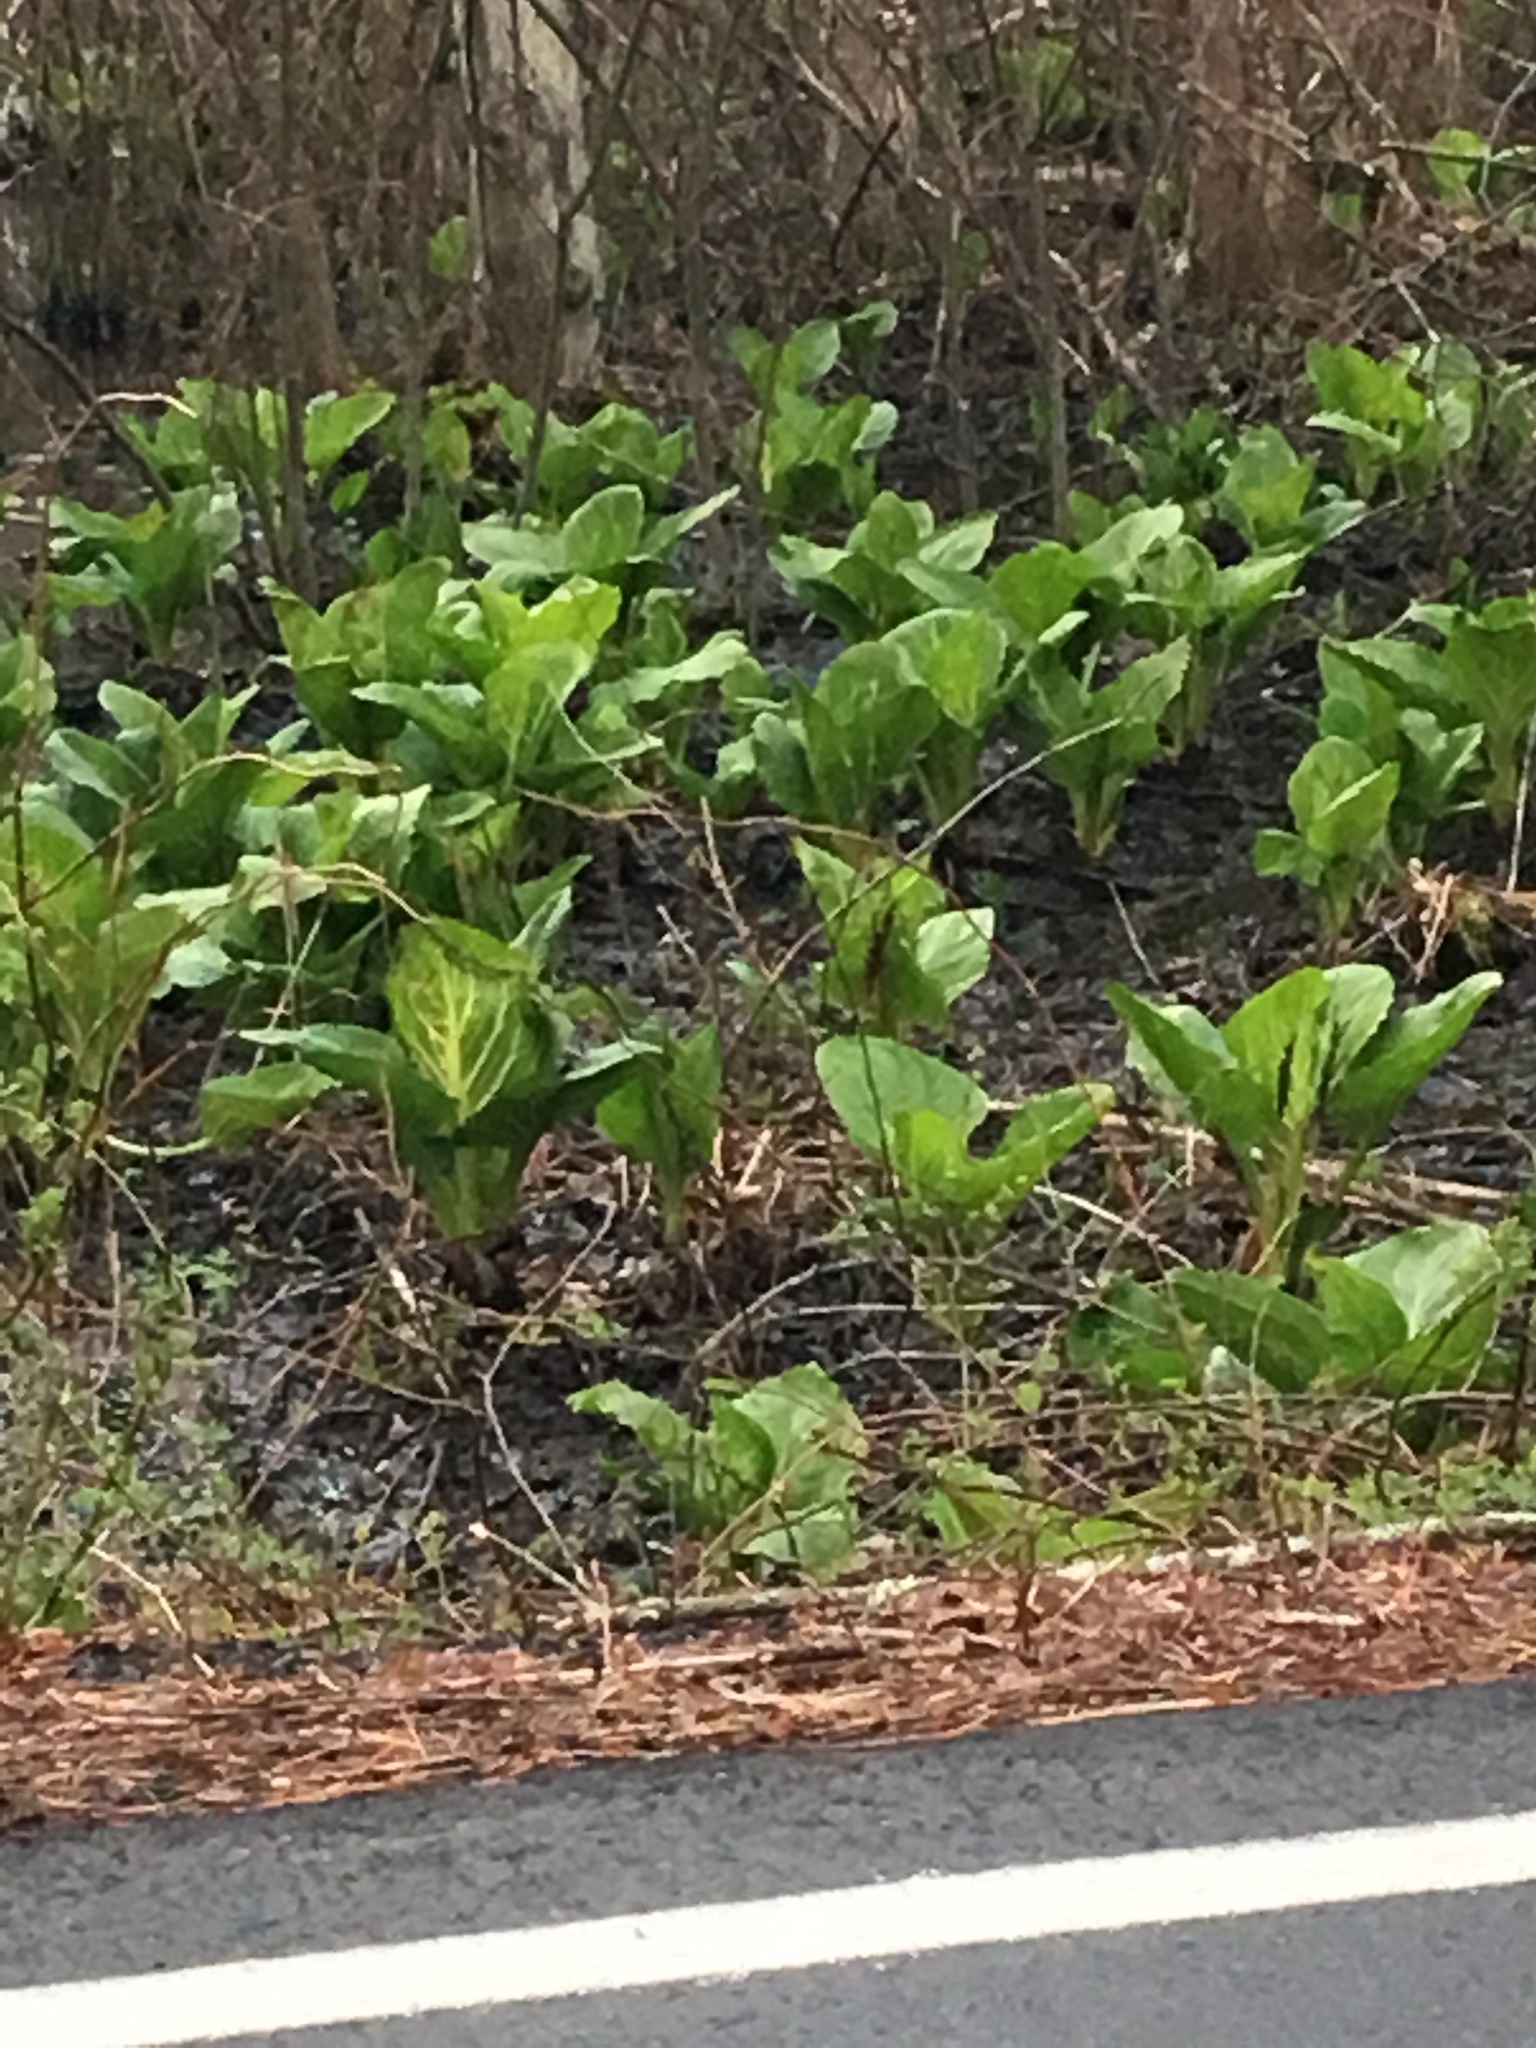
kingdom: Plantae
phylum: Tracheophyta
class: Liliopsida
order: Alismatales
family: Araceae
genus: Symplocarpus
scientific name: Symplocarpus foetidus
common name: Eastern skunk cabbage
